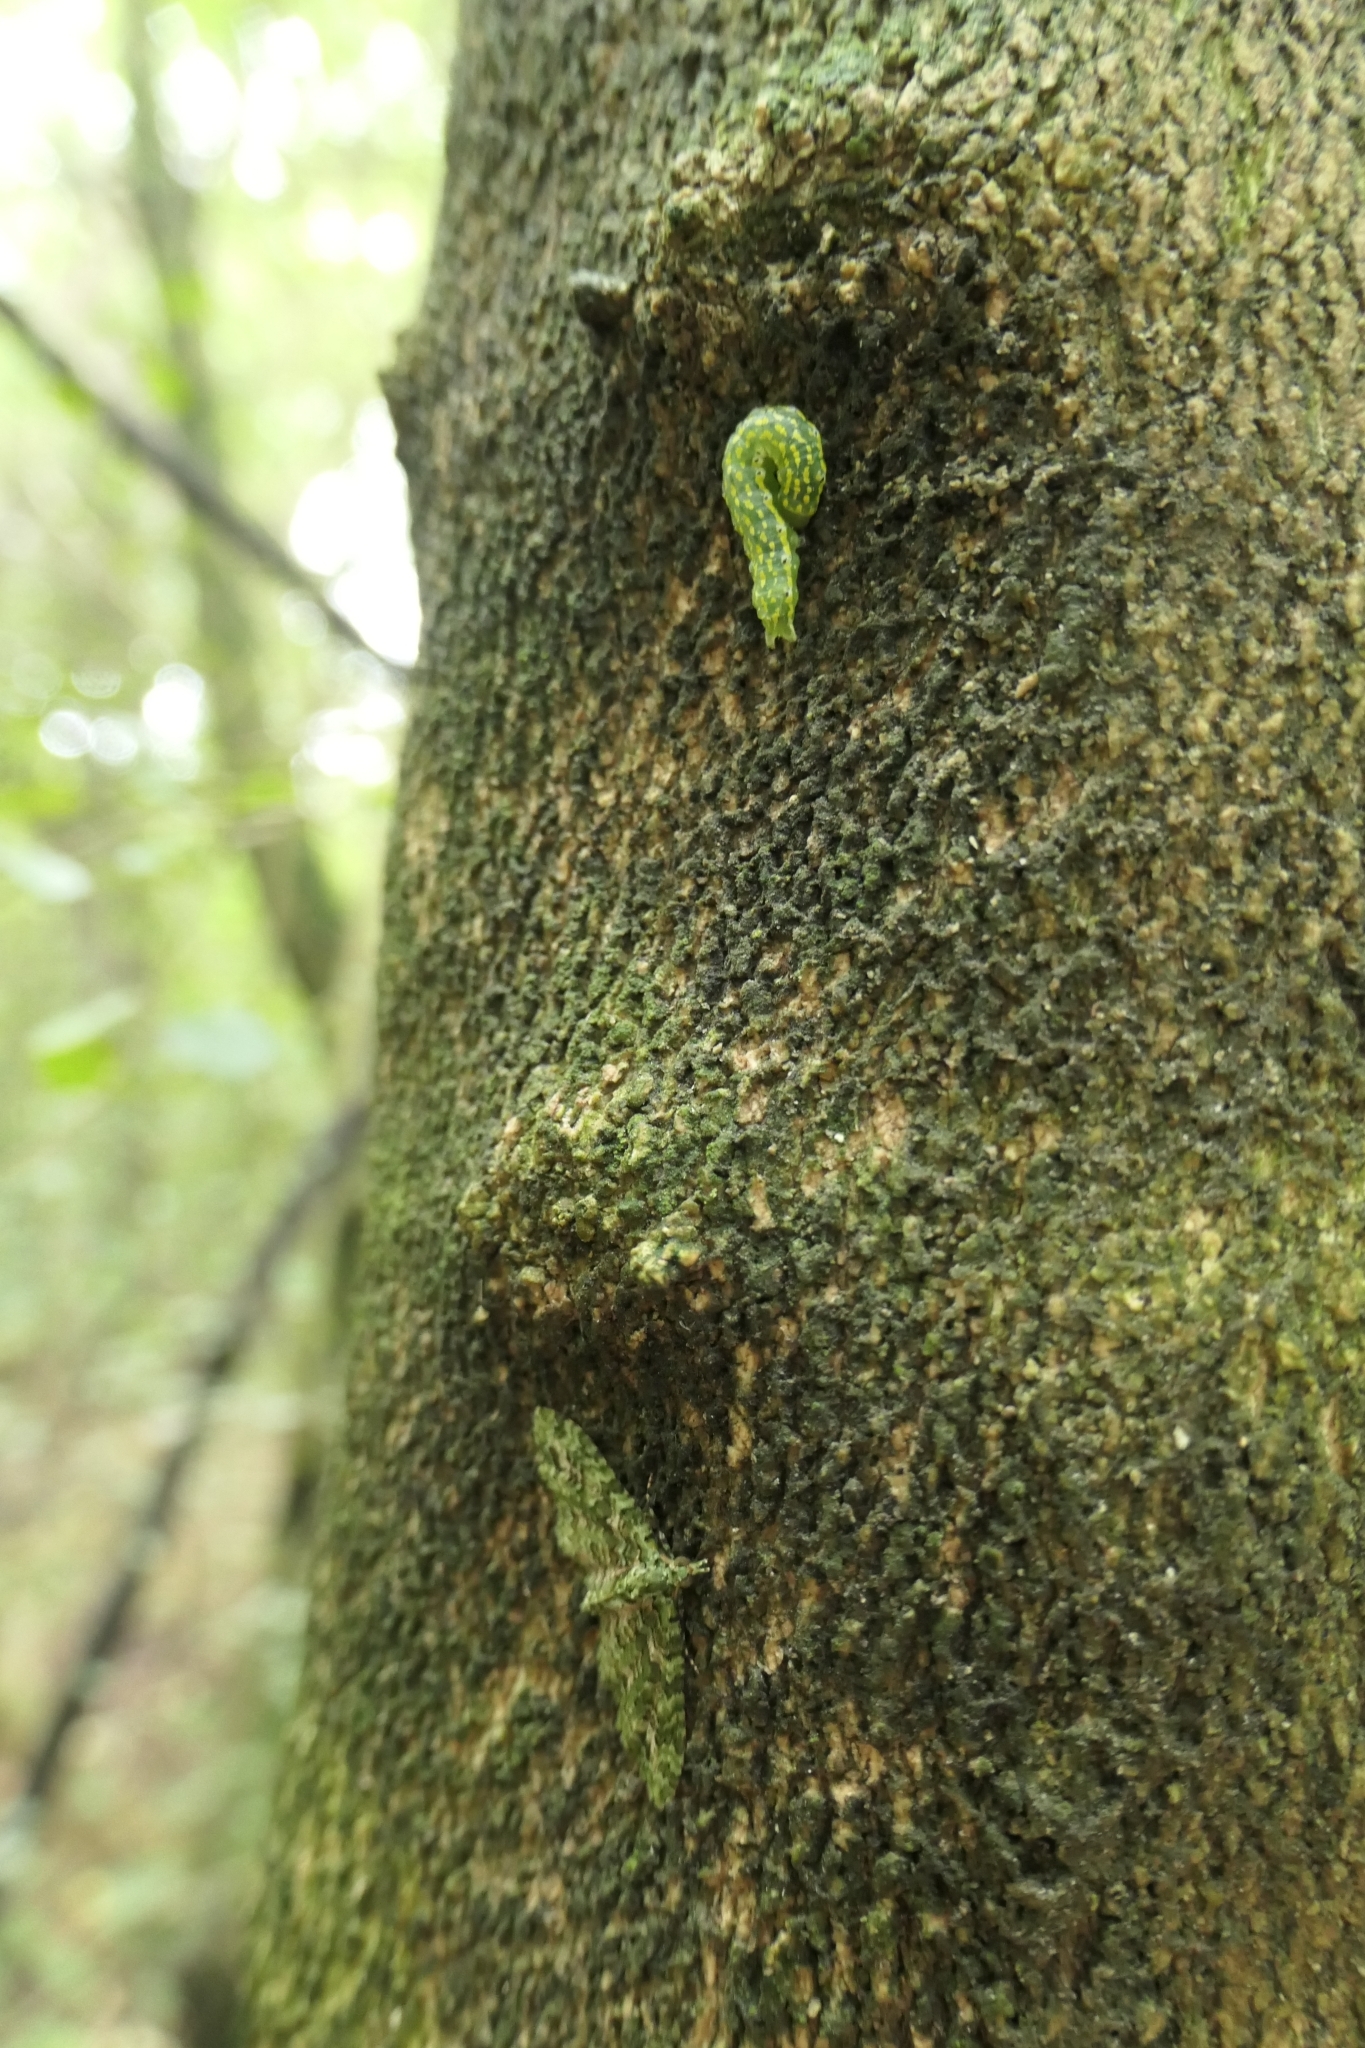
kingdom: Animalia
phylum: Arthropoda
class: Insecta
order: Lepidoptera
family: Noctuidae
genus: Austramathes
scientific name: Austramathes purpurea
